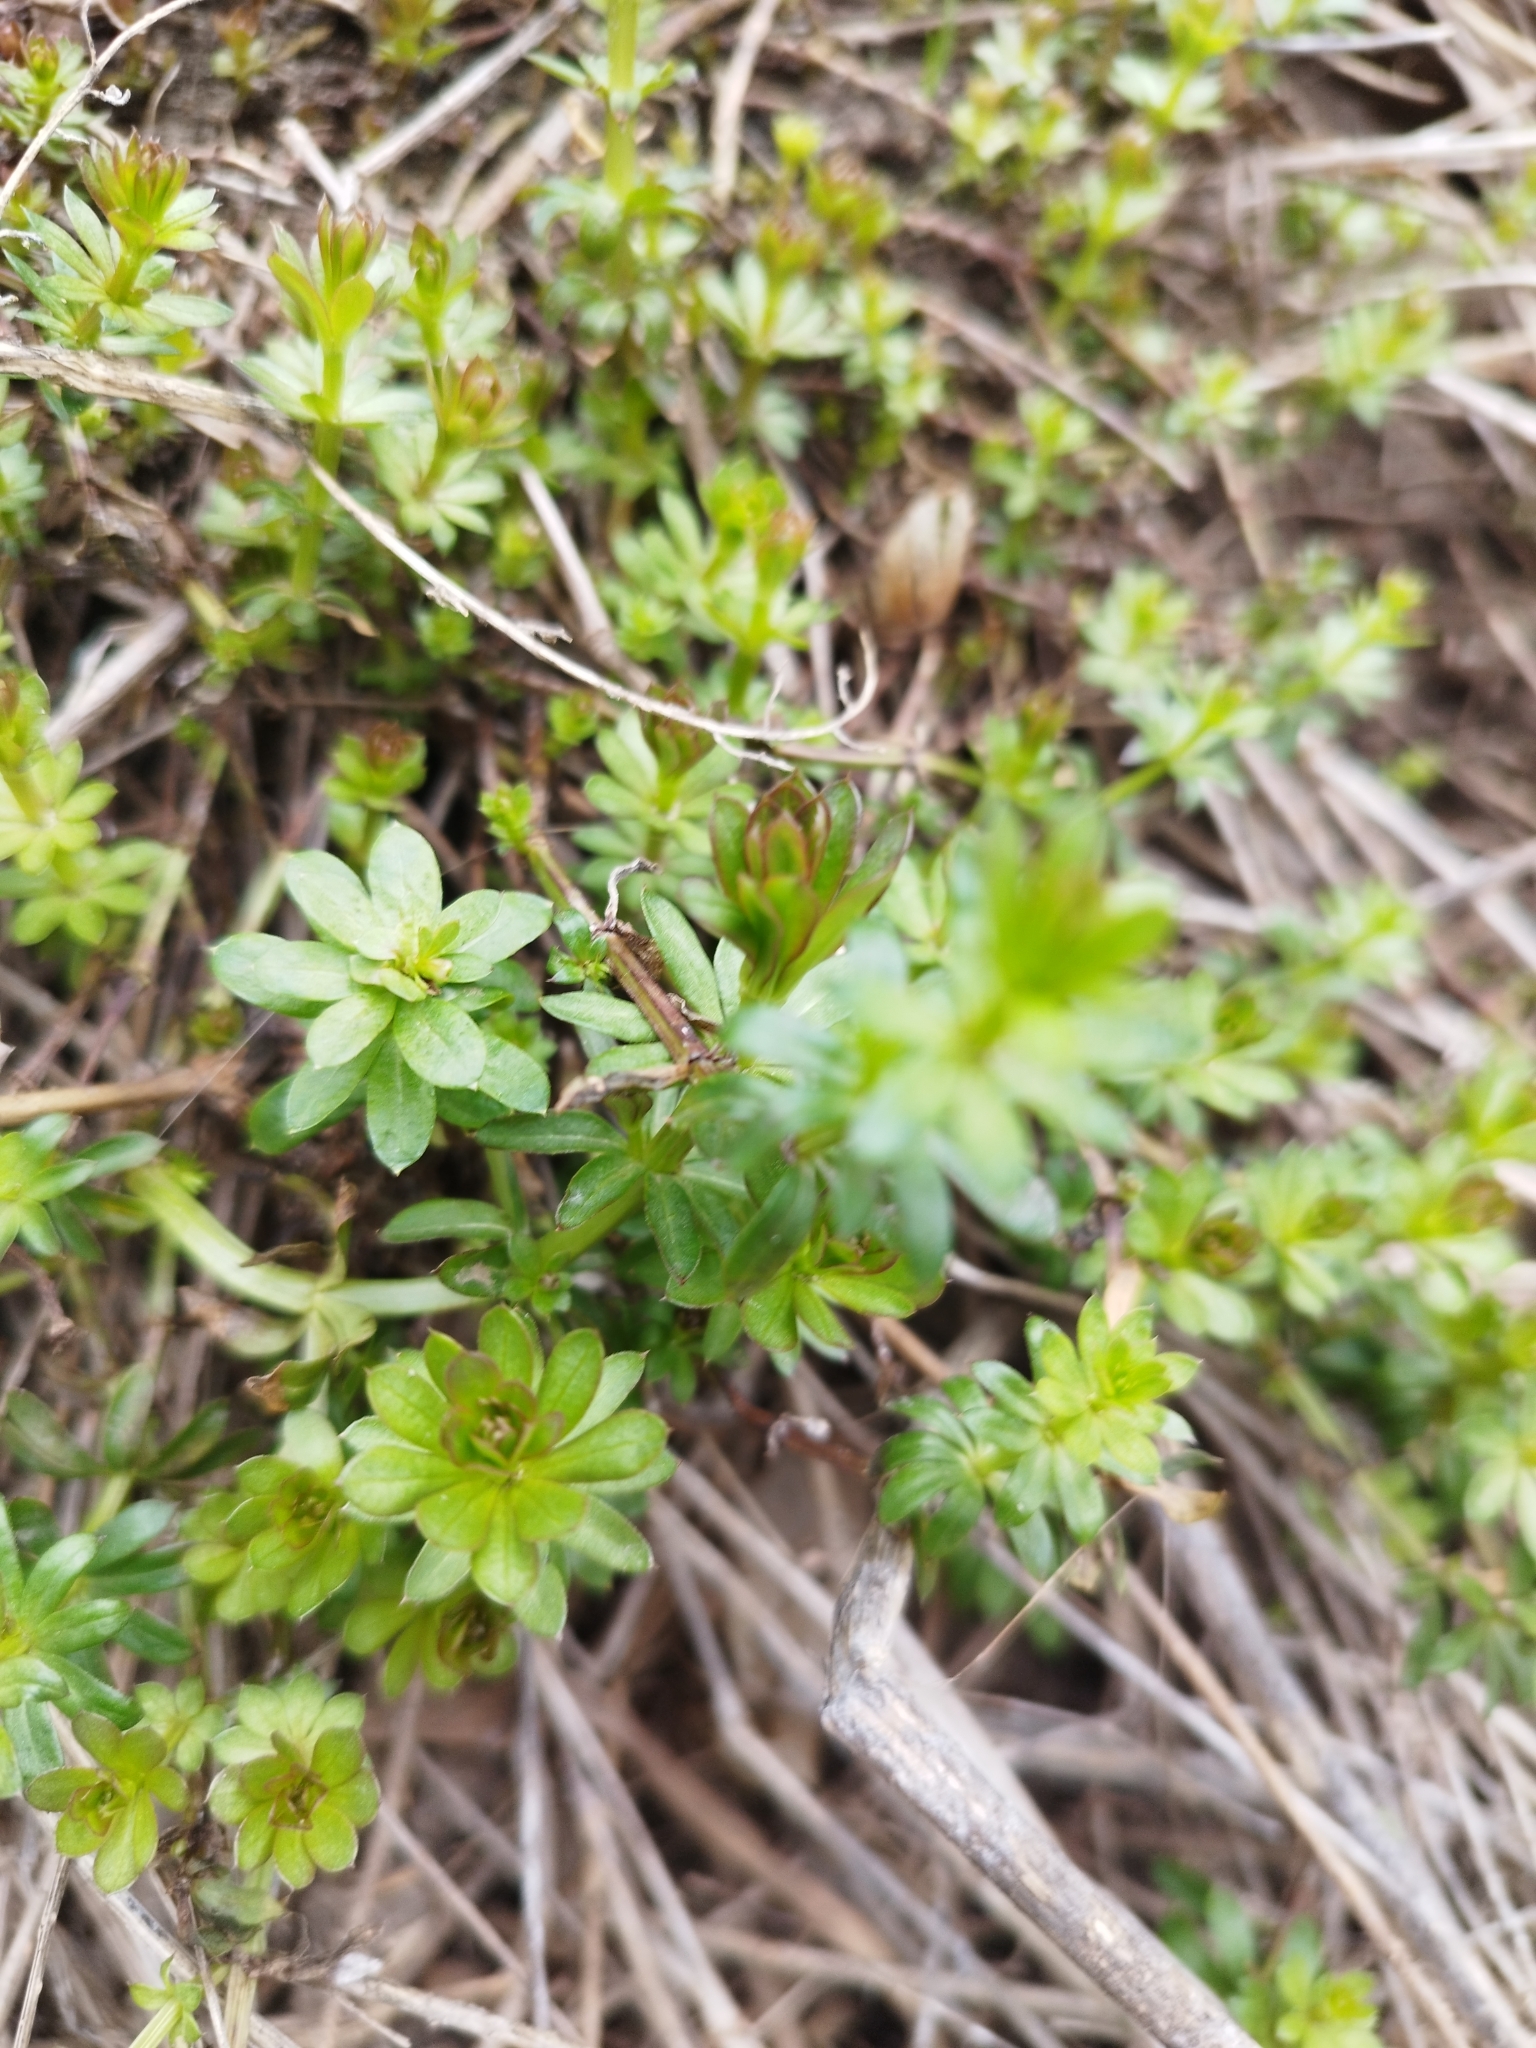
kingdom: Plantae
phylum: Tracheophyta
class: Magnoliopsida
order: Gentianales
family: Rubiaceae
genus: Galium
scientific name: Galium mollugo
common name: Hedge bedstraw
